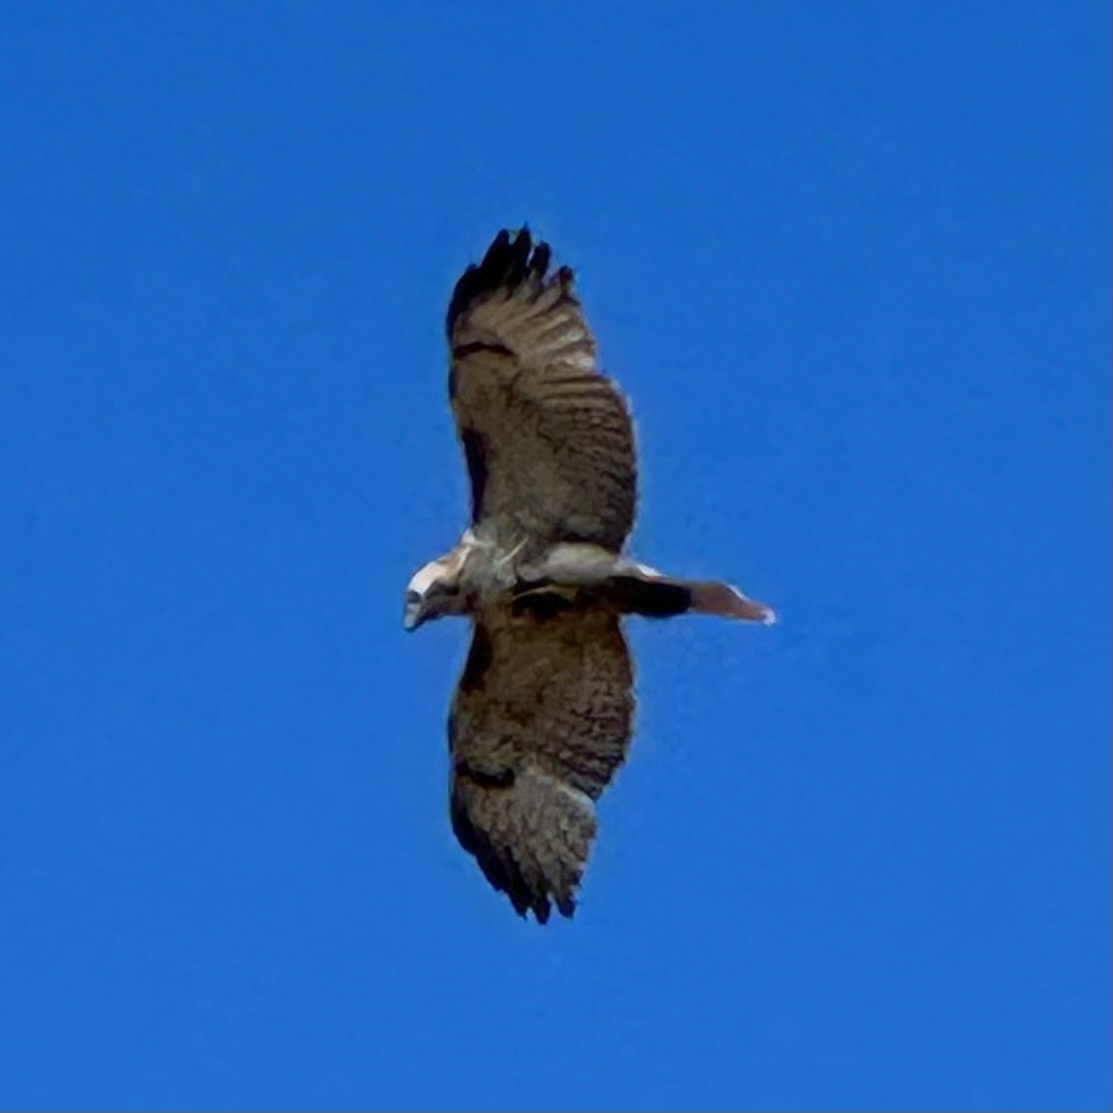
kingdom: Animalia
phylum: Chordata
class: Aves
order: Accipitriformes
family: Accipitridae
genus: Buteo
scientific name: Buteo jamaicensis
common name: Red-tailed hawk
